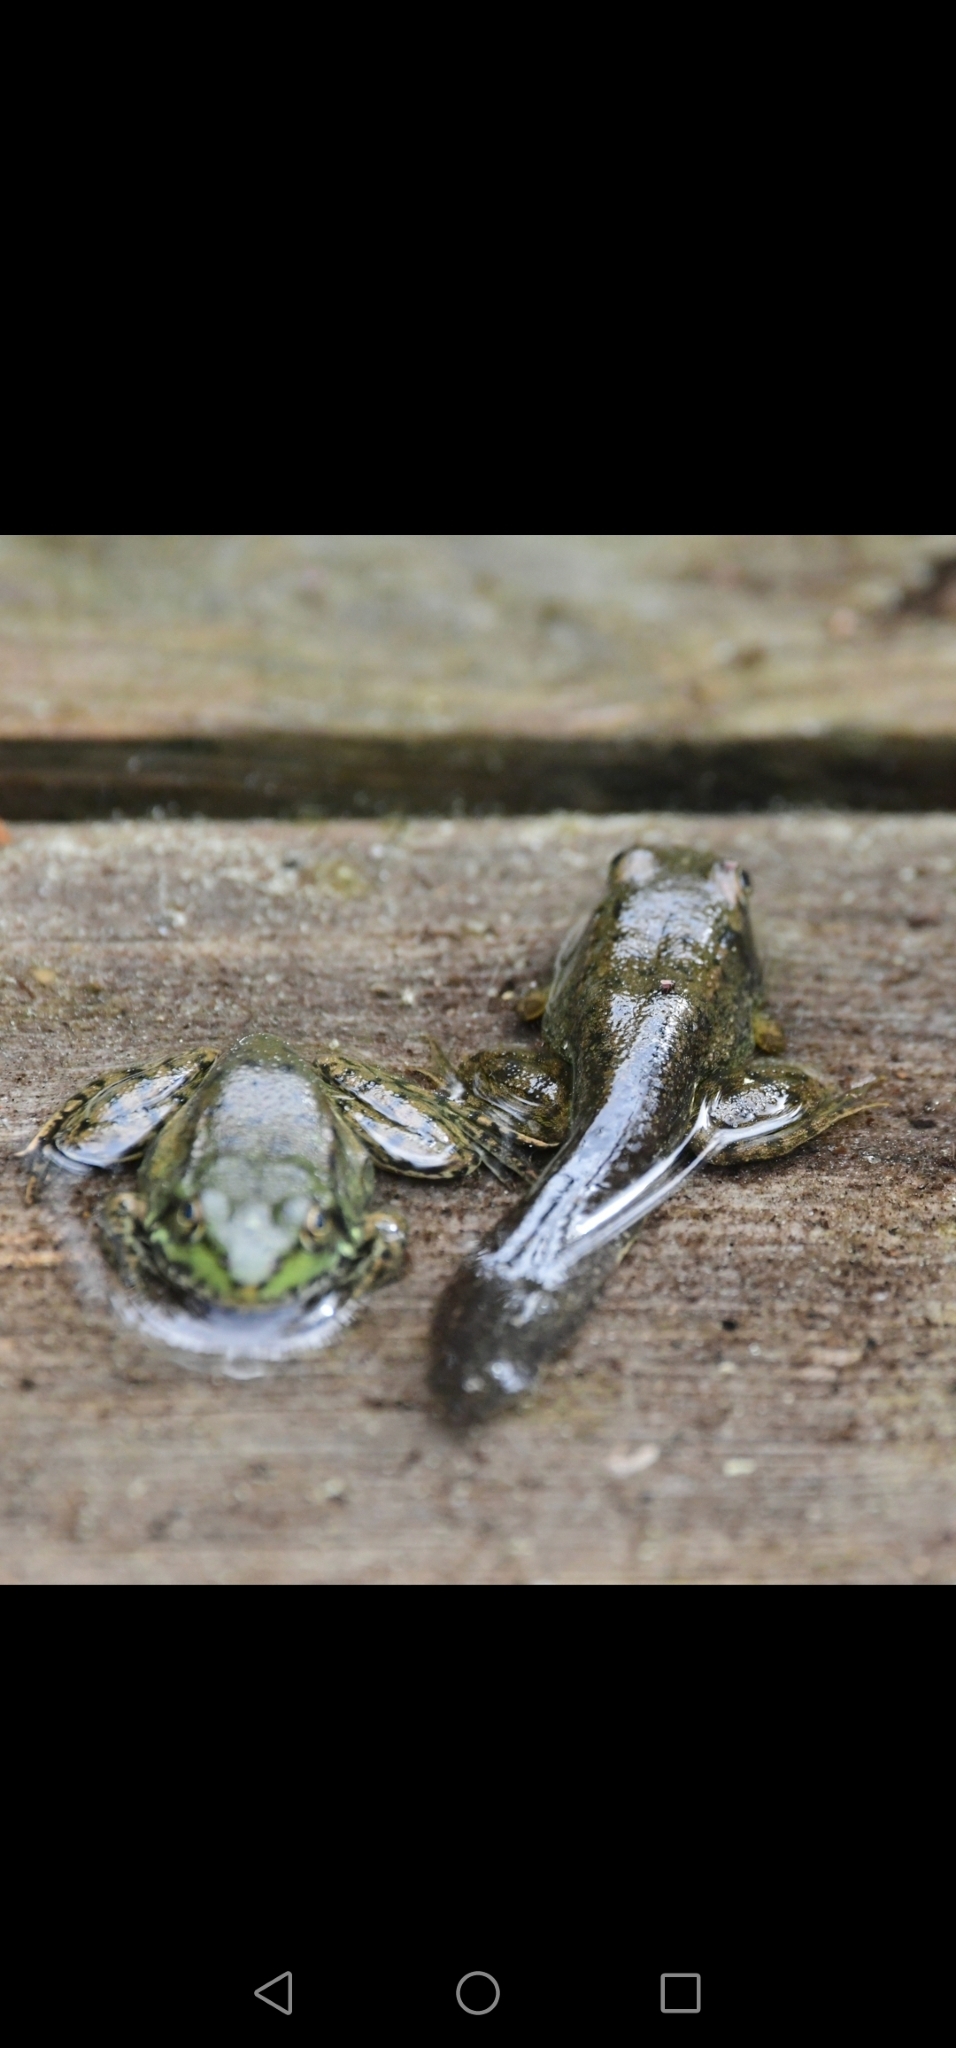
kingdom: Animalia
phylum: Chordata
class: Amphibia
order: Anura
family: Ranidae
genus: Lithobates
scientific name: Lithobates clamitans
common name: Green frog
